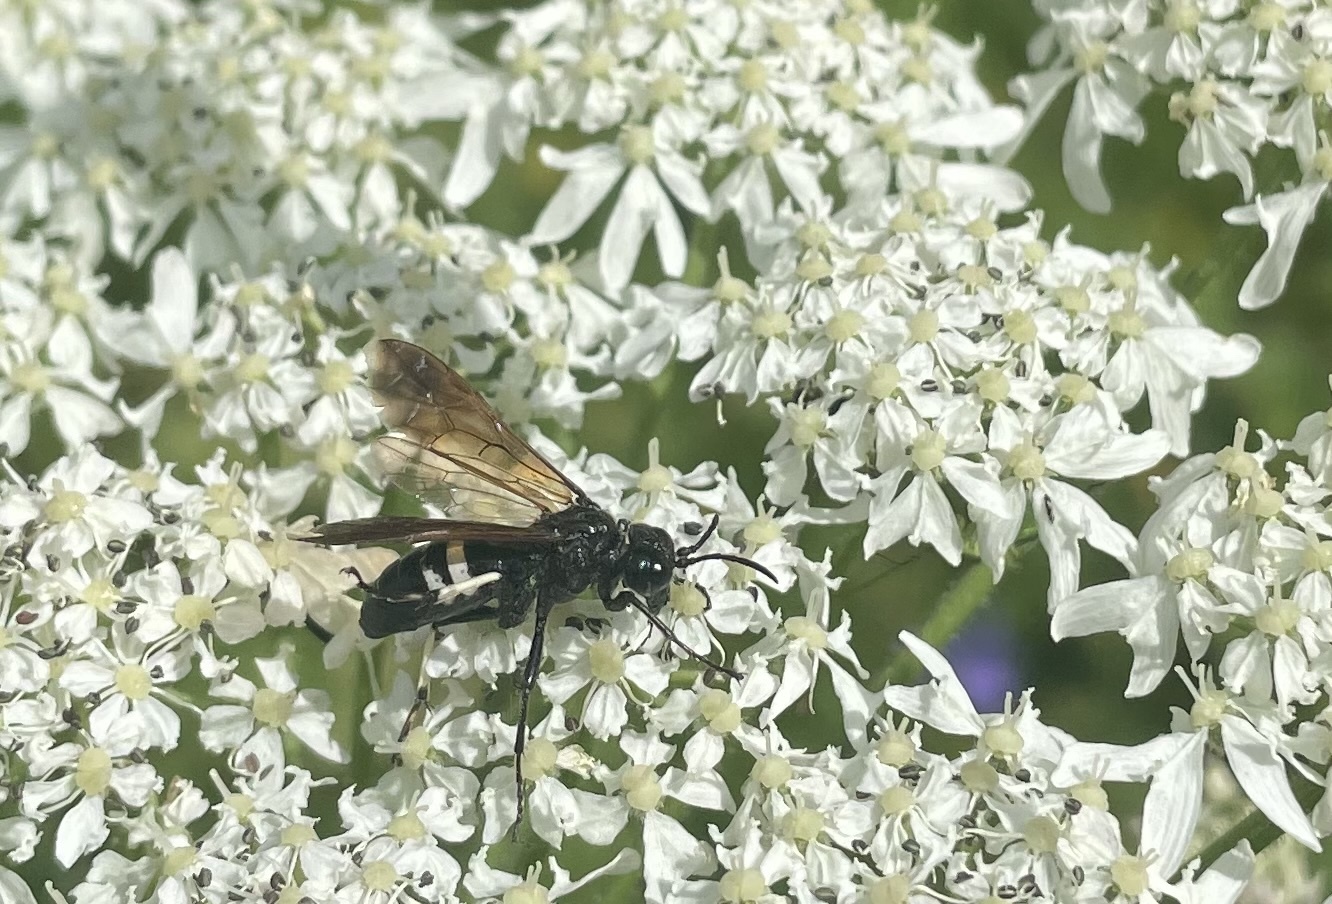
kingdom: Animalia
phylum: Arthropoda
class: Insecta
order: Hymenoptera
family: Tenthredinidae
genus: Tenthredo
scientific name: Tenthredo bifasciata
